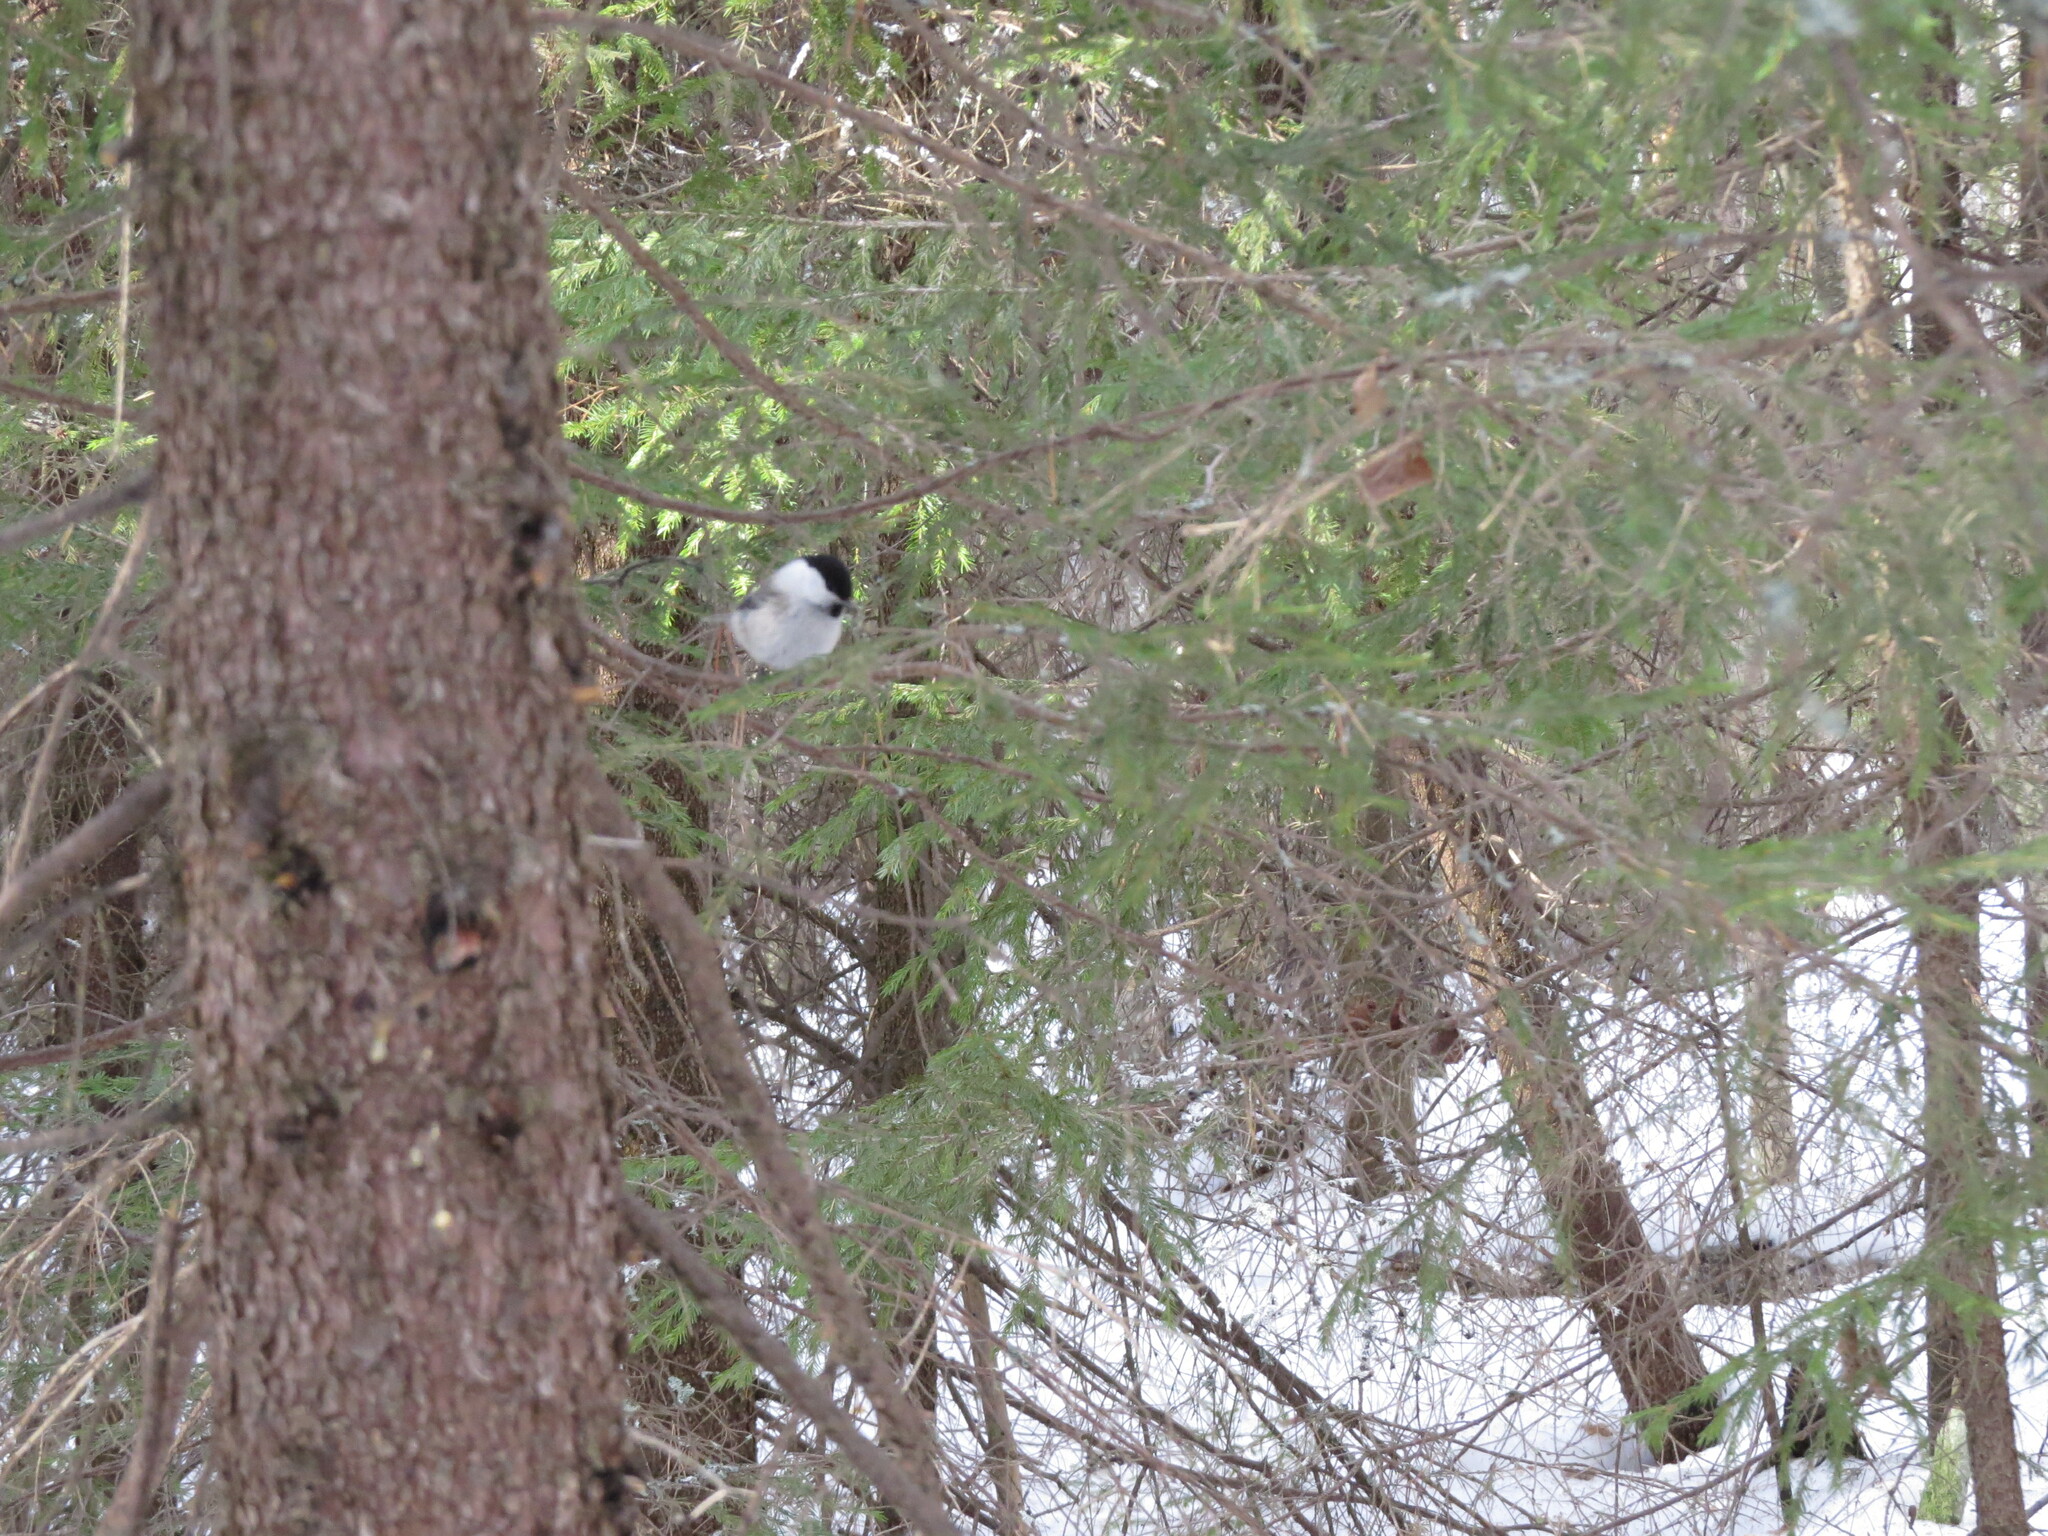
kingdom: Animalia
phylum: Chordata
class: Aves
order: Passeriformes
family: Paridae
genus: Poecile
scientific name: Poecile montanus
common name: Willow tit
